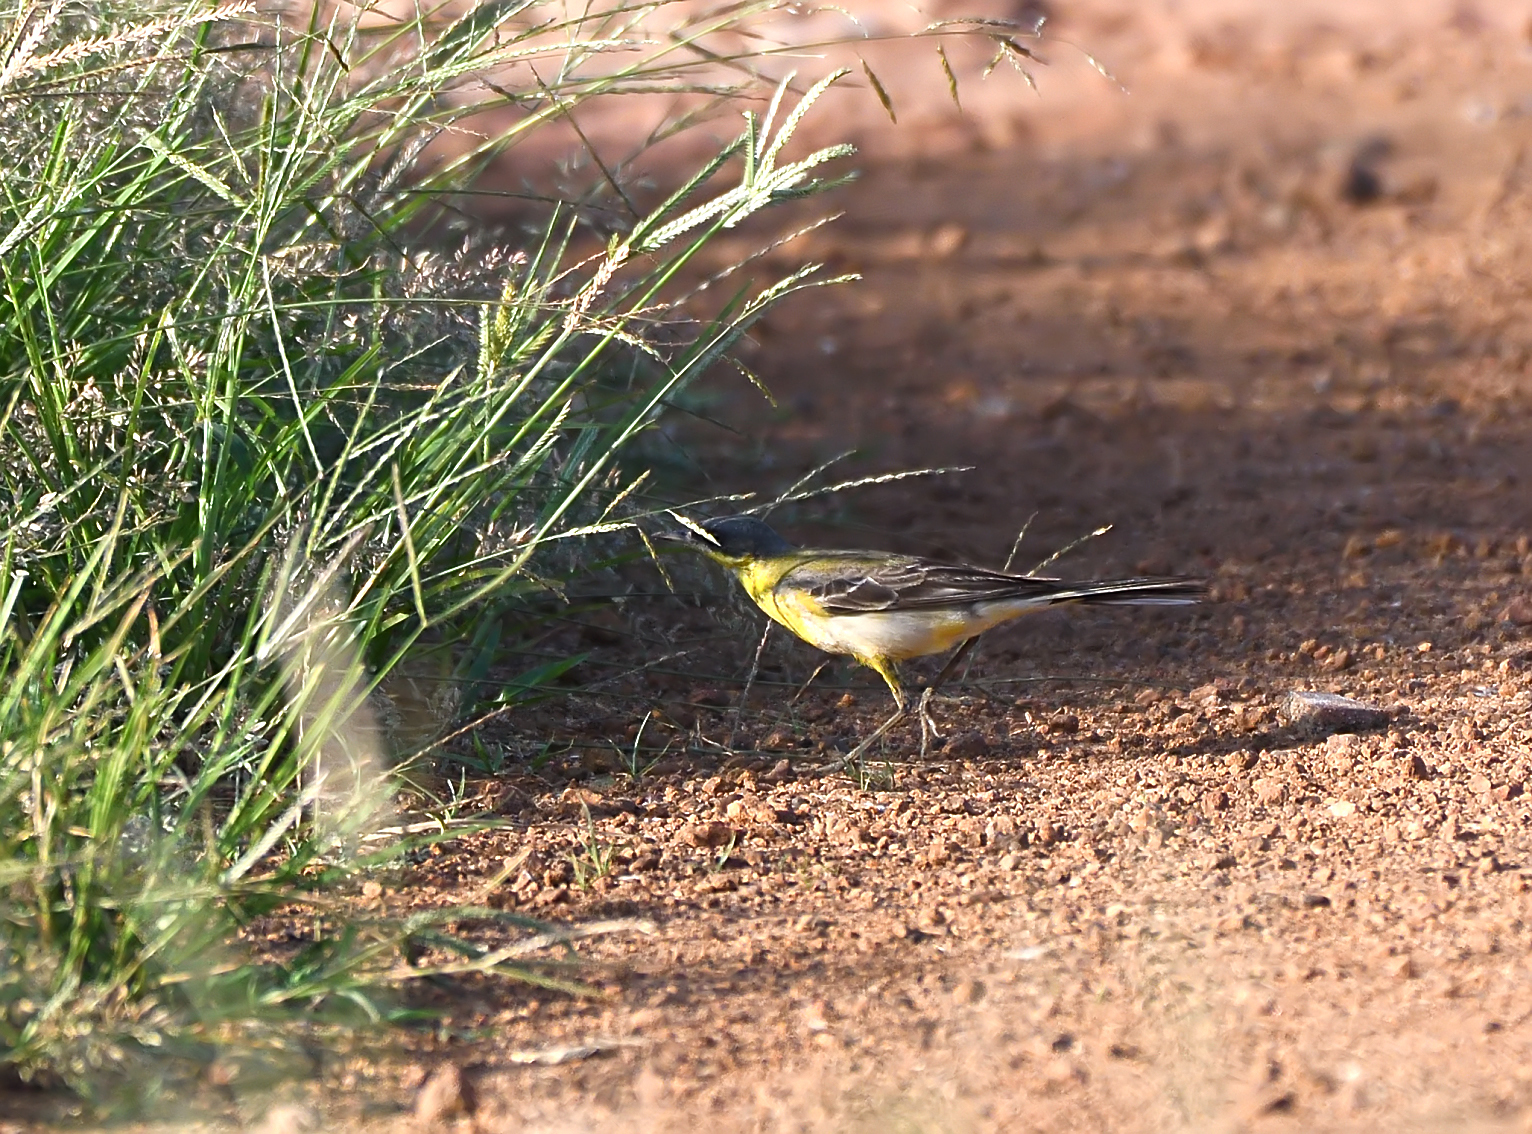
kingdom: Animalia
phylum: Chordata
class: Aves
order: Passeriformes
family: Motacillidae
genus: Motacilla
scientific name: Motacilla flava
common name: Western yellow wagtail
